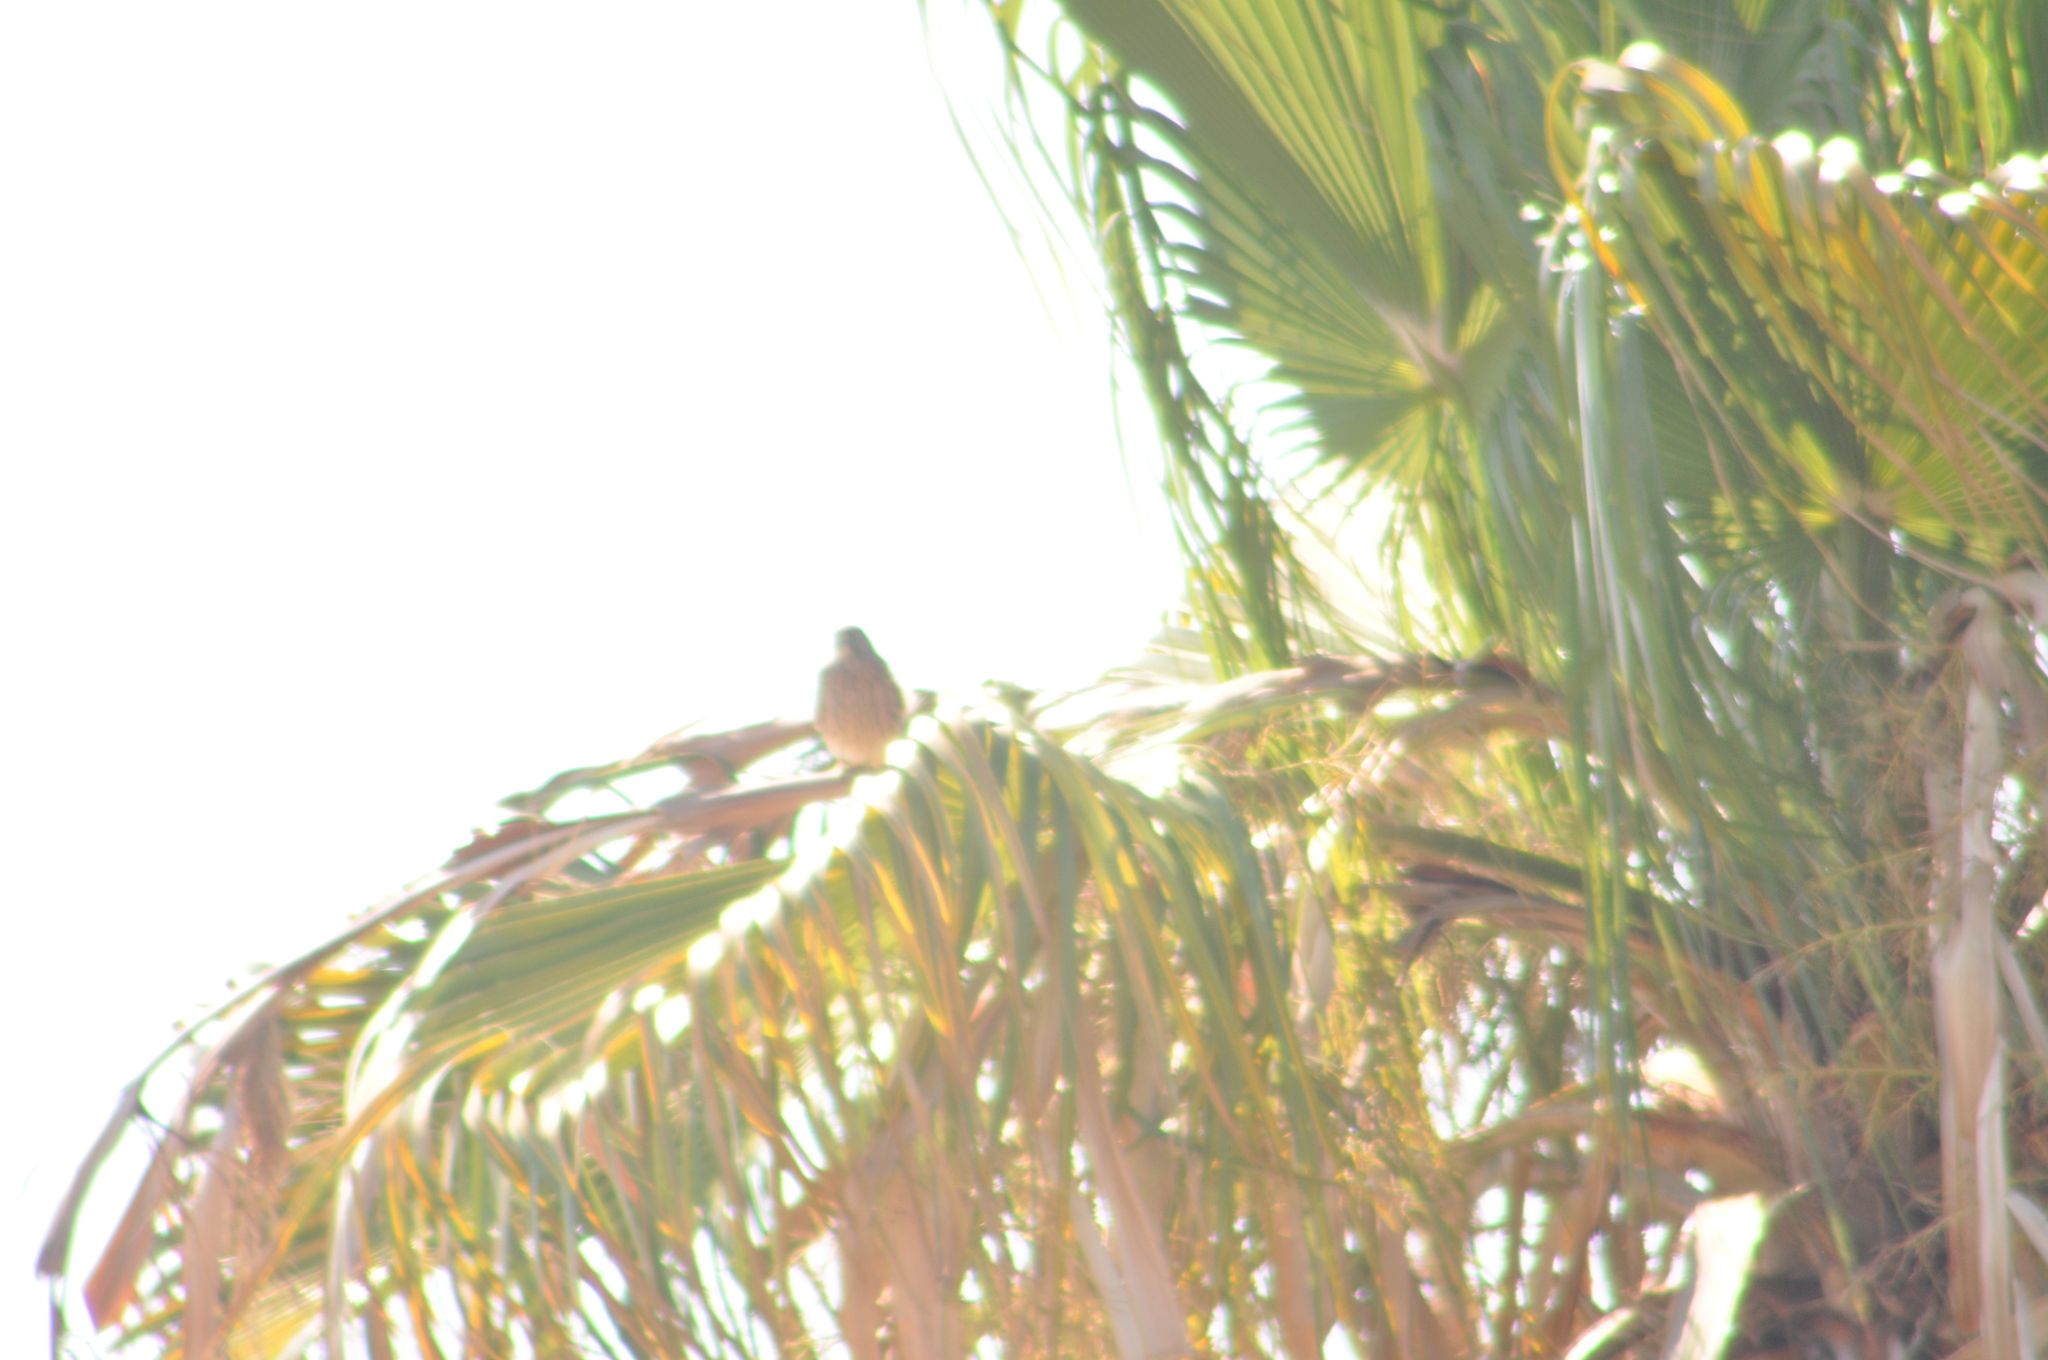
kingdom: Animalia
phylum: Chordata
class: Aves
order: Falconiformes
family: Falconidae
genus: Falco
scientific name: Falco tinnunculus
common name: Common kestrel
